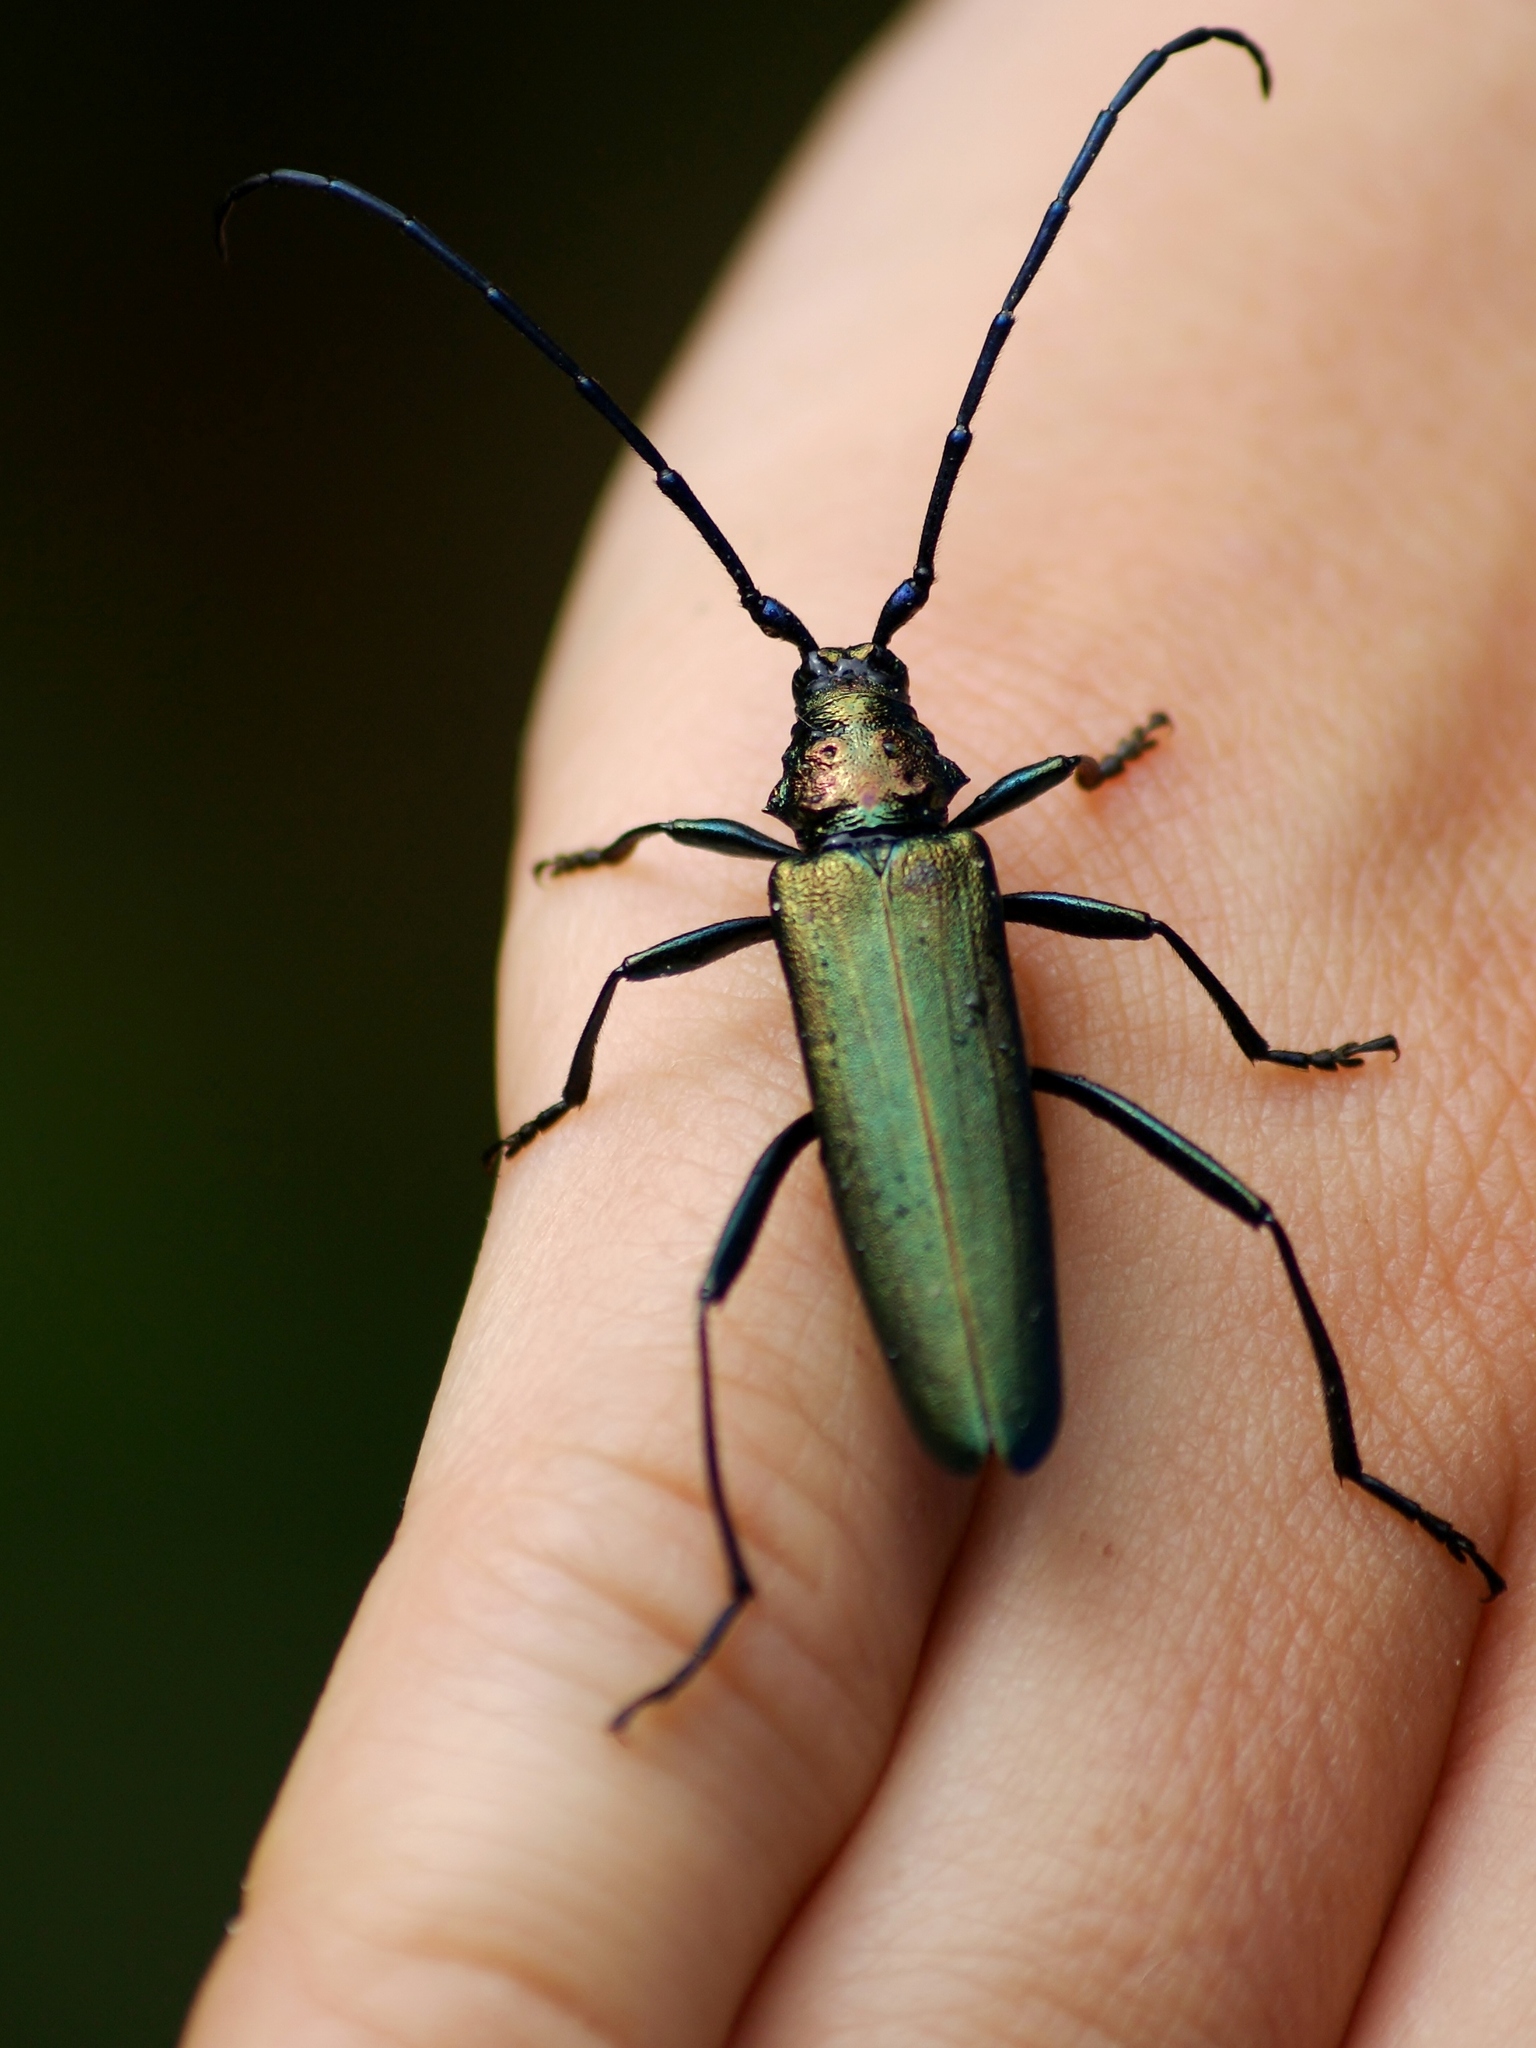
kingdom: Animalia
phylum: Arthropoda
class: Insecta
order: Coleoptera
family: Cerambycidae
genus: Aromia
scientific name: Aromia moschata
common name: Musk beetle
